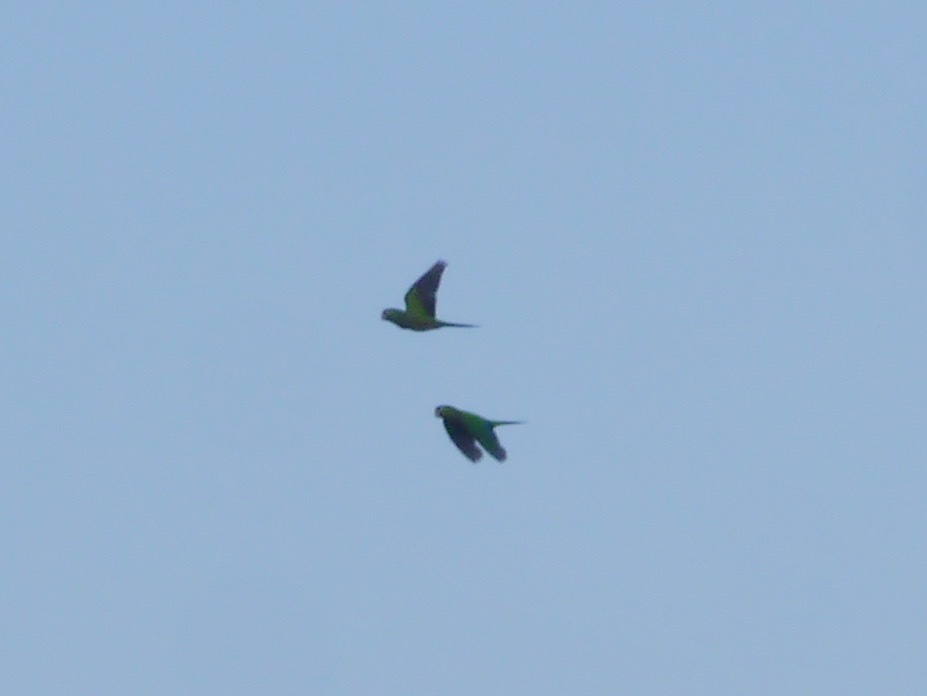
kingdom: Animalia
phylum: Chordata
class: Aves
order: Psittaciformes
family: Psittacidae
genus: Aratinga
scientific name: Aratinga nana
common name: Olive-throated parakeet
